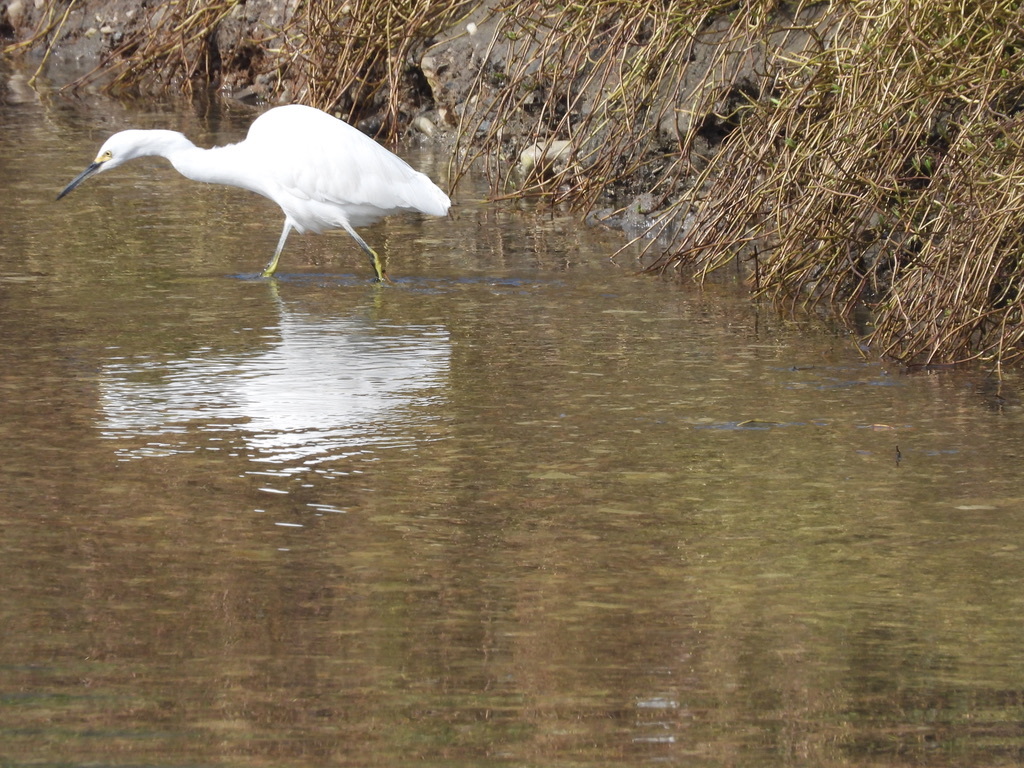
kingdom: Animalia
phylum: Chordata
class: Aves
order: Pelecaniformes
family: Ardeidae
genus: Egretta
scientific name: Egretta thula
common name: Snowy egret
